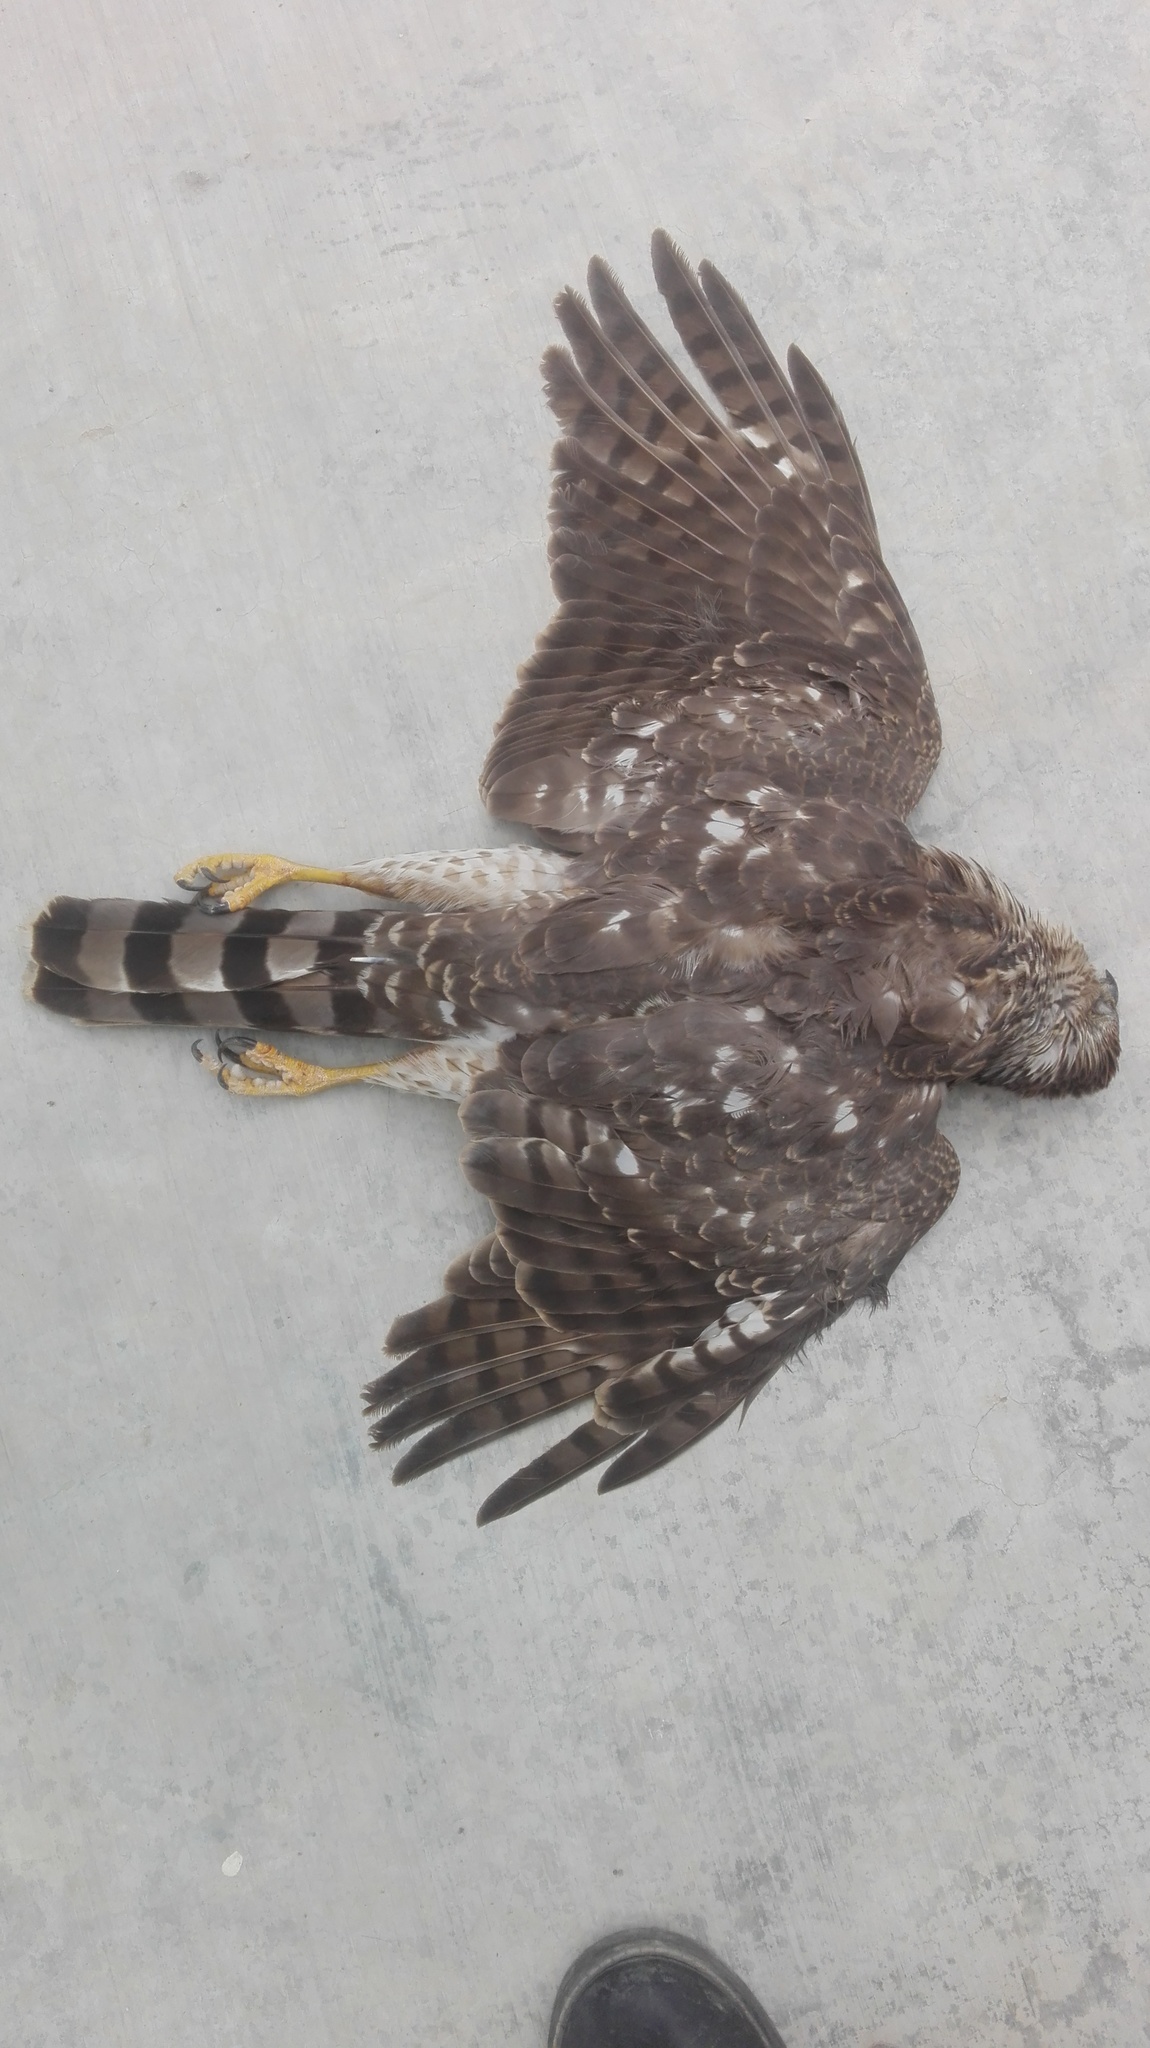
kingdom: Animalia
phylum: Chordata
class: Aves
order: Accipitriformes
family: Accipitridae
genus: Accipiter
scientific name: Accipiter cooperii
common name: Cooper's hawk
